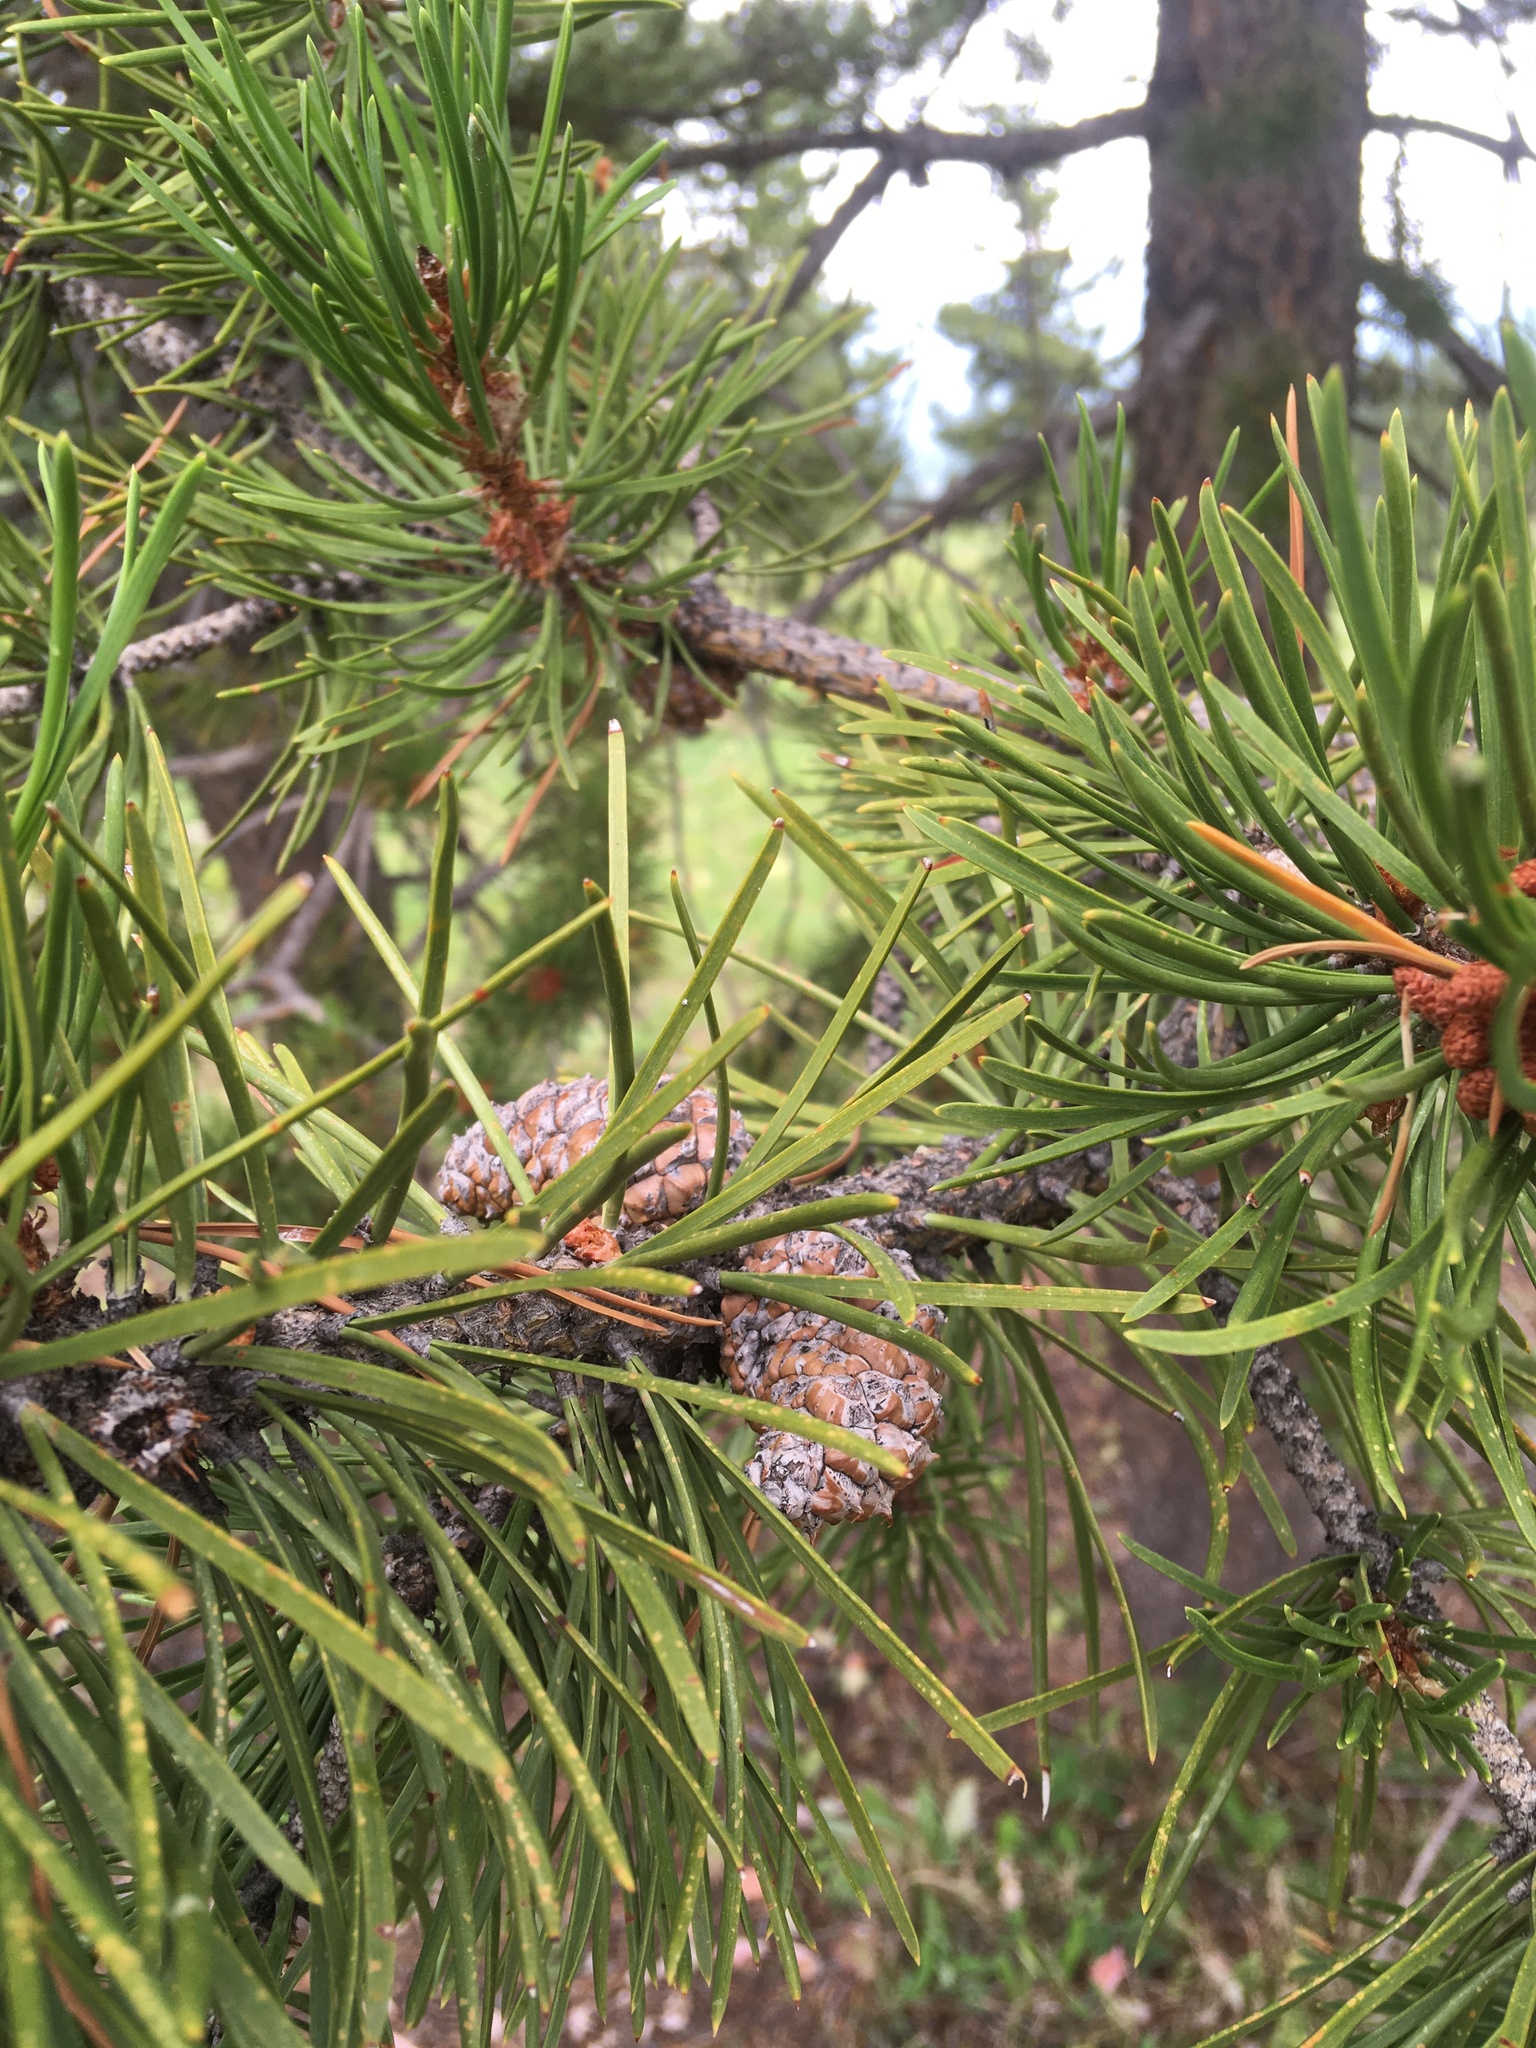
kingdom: Plantae
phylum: Tracheophyta
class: Pinopsida
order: Pinales
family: Pinaceae
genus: Pinus
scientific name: Pinus contorta
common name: Lodgepole pine
